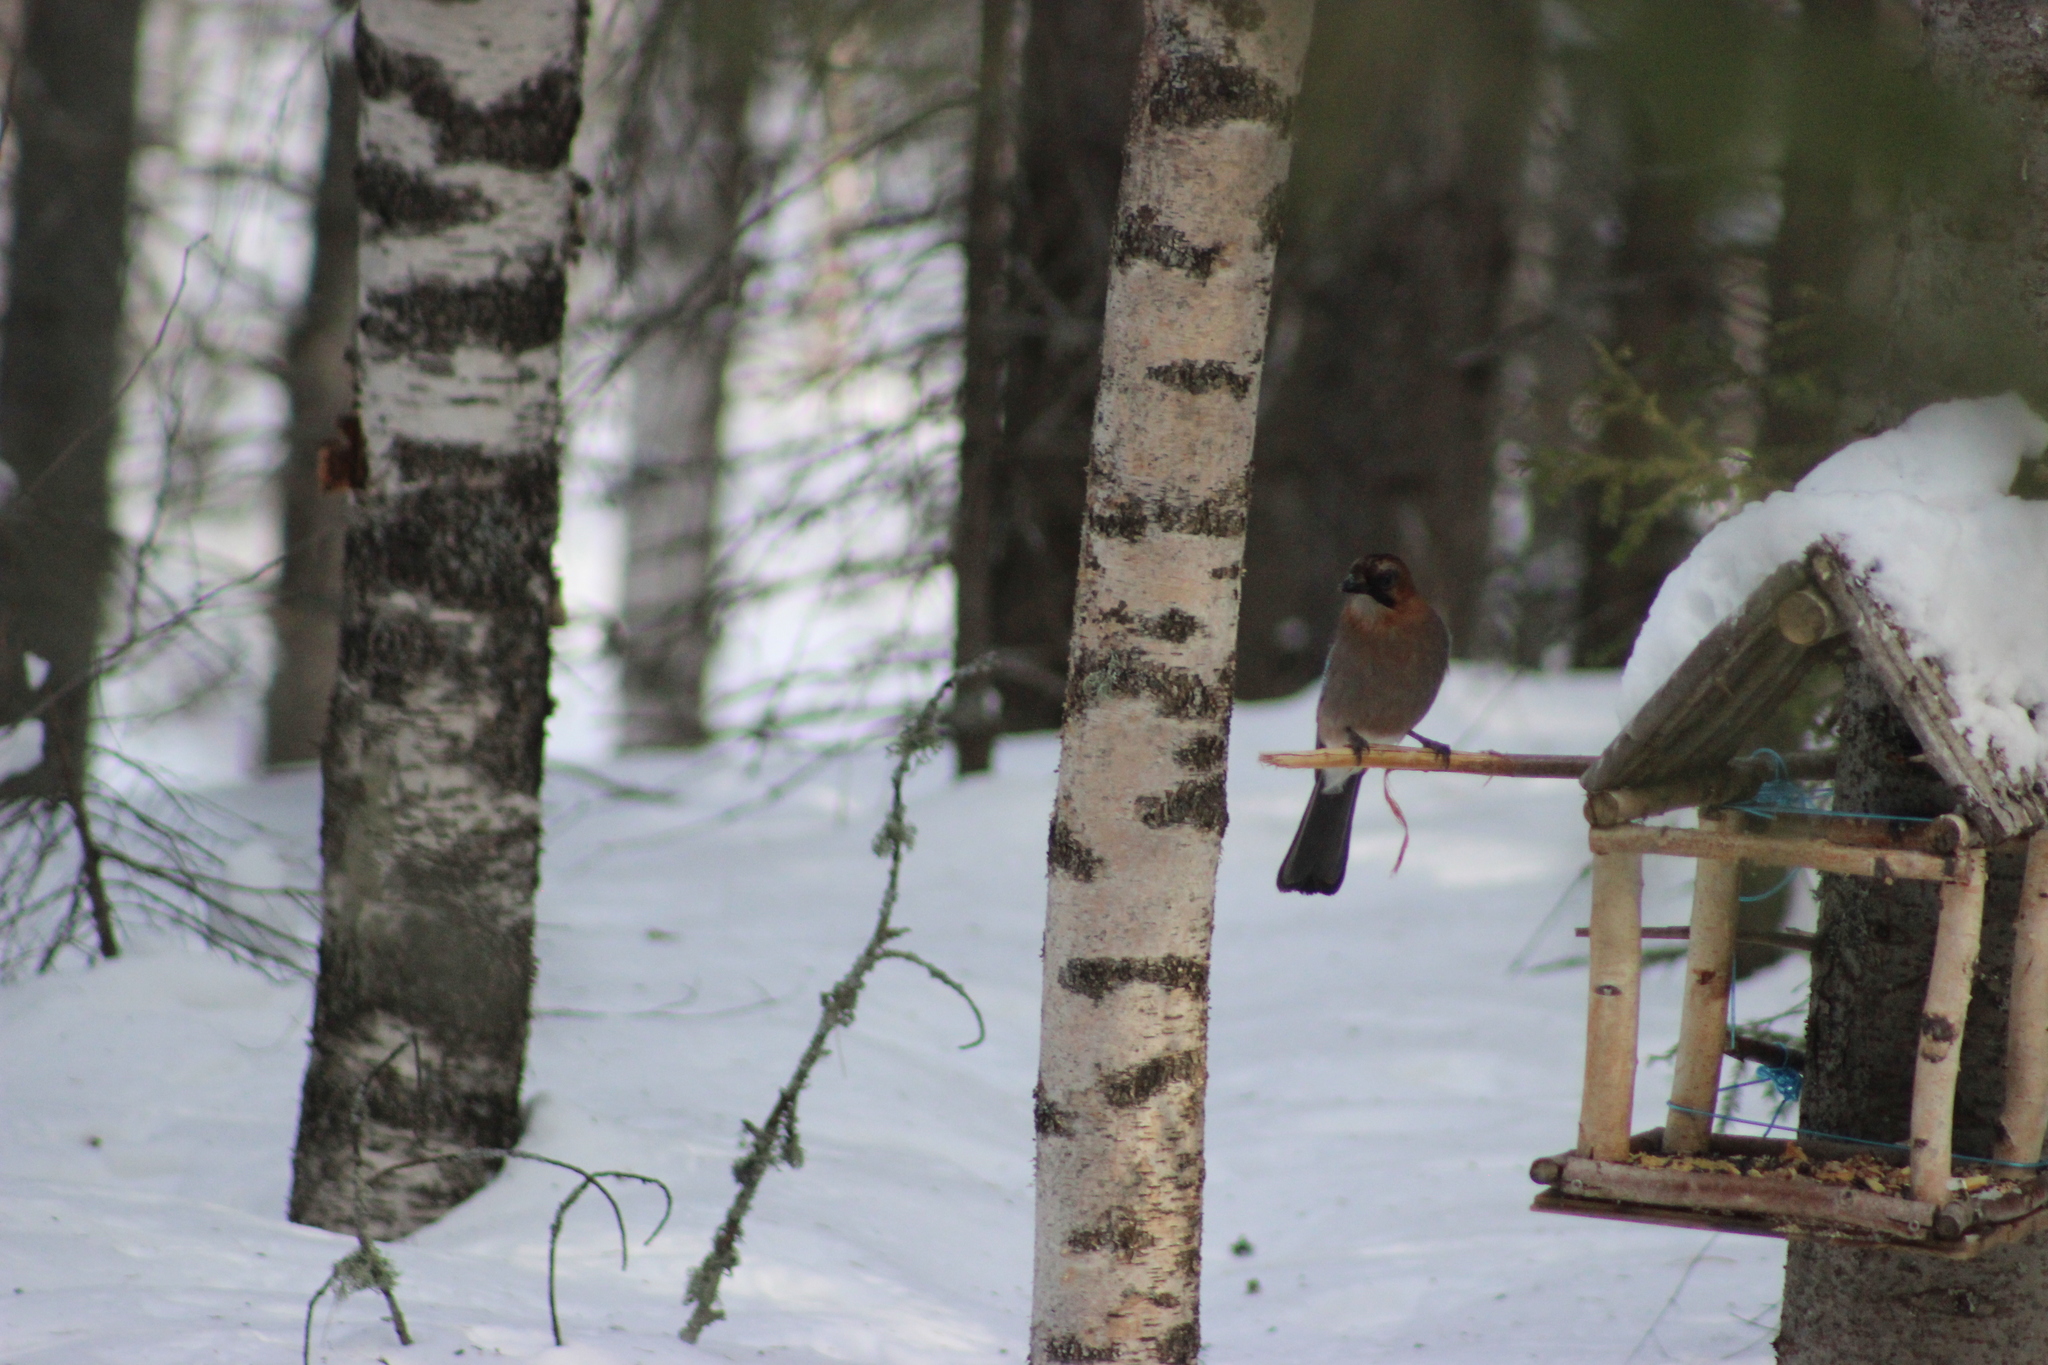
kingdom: Animalia
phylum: Chordata
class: Aves
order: Passeriformes
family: Corvidae
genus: Garrulus
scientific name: Garrulus glandarius
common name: Eurasian jay
